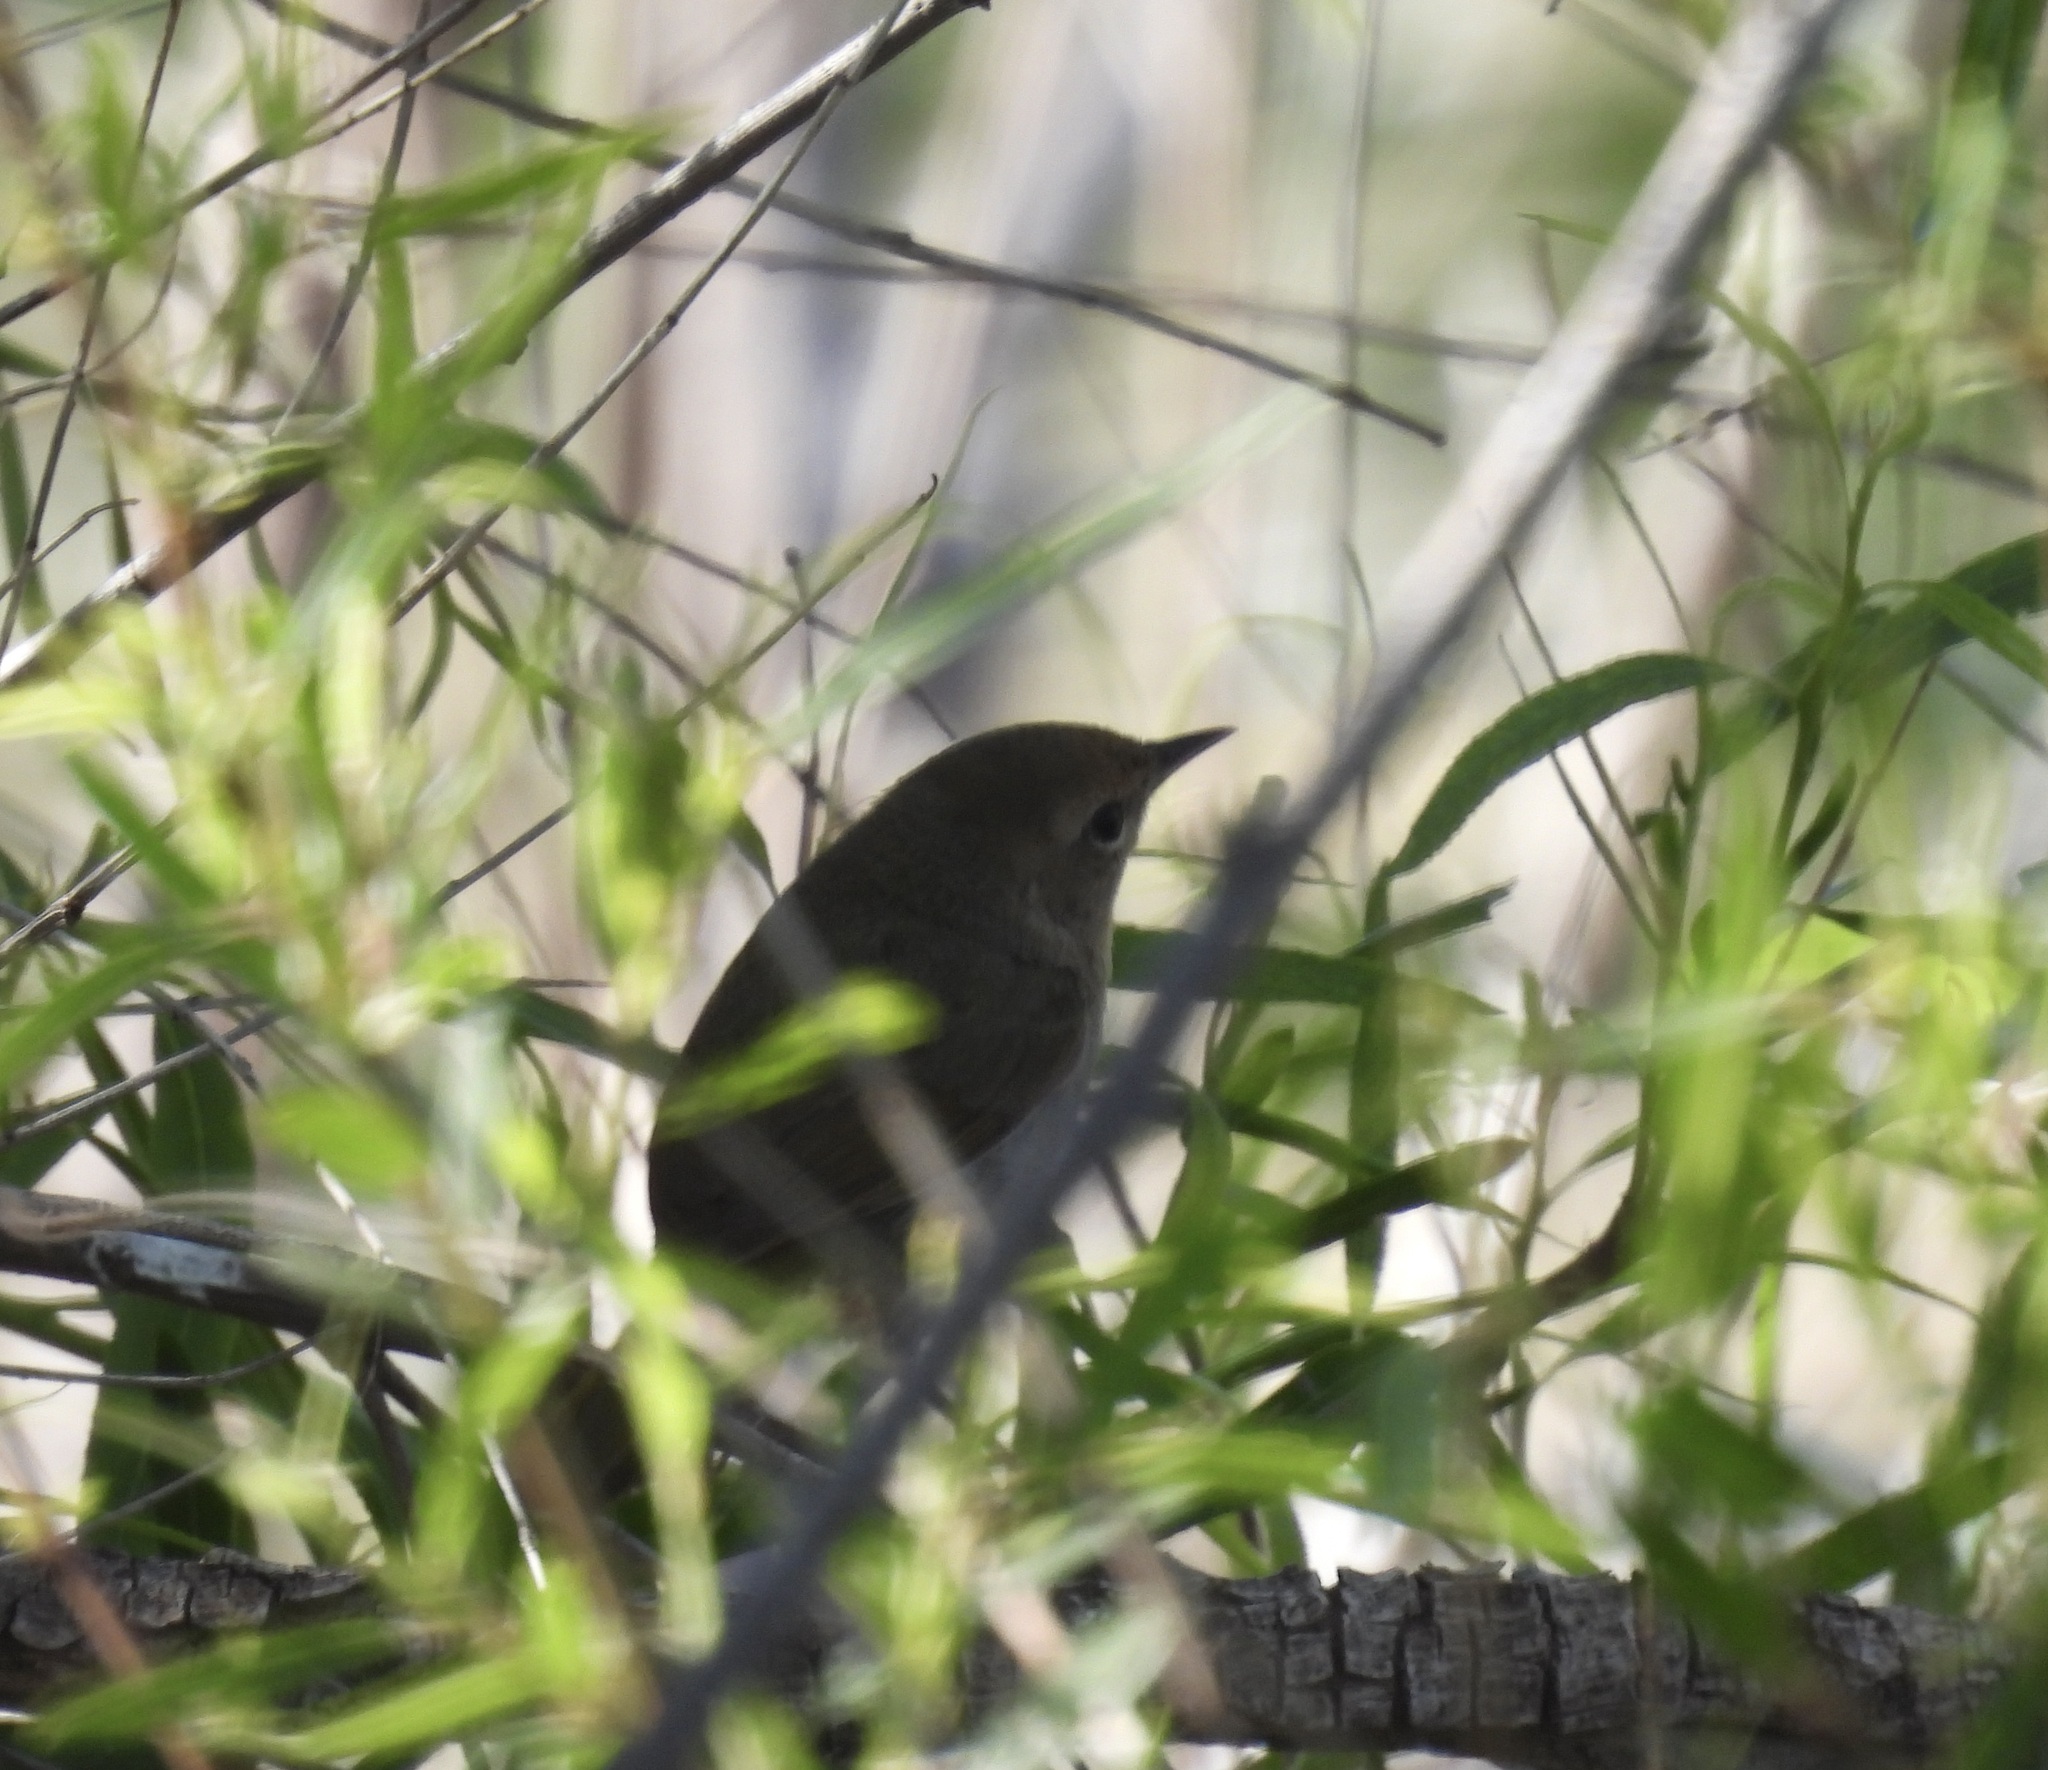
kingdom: Animalia
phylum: Chordata
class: Aves
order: Passeriformes
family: Parulidae
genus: Geothlypis
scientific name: Geothlypis trichas
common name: Common yellowthroat
